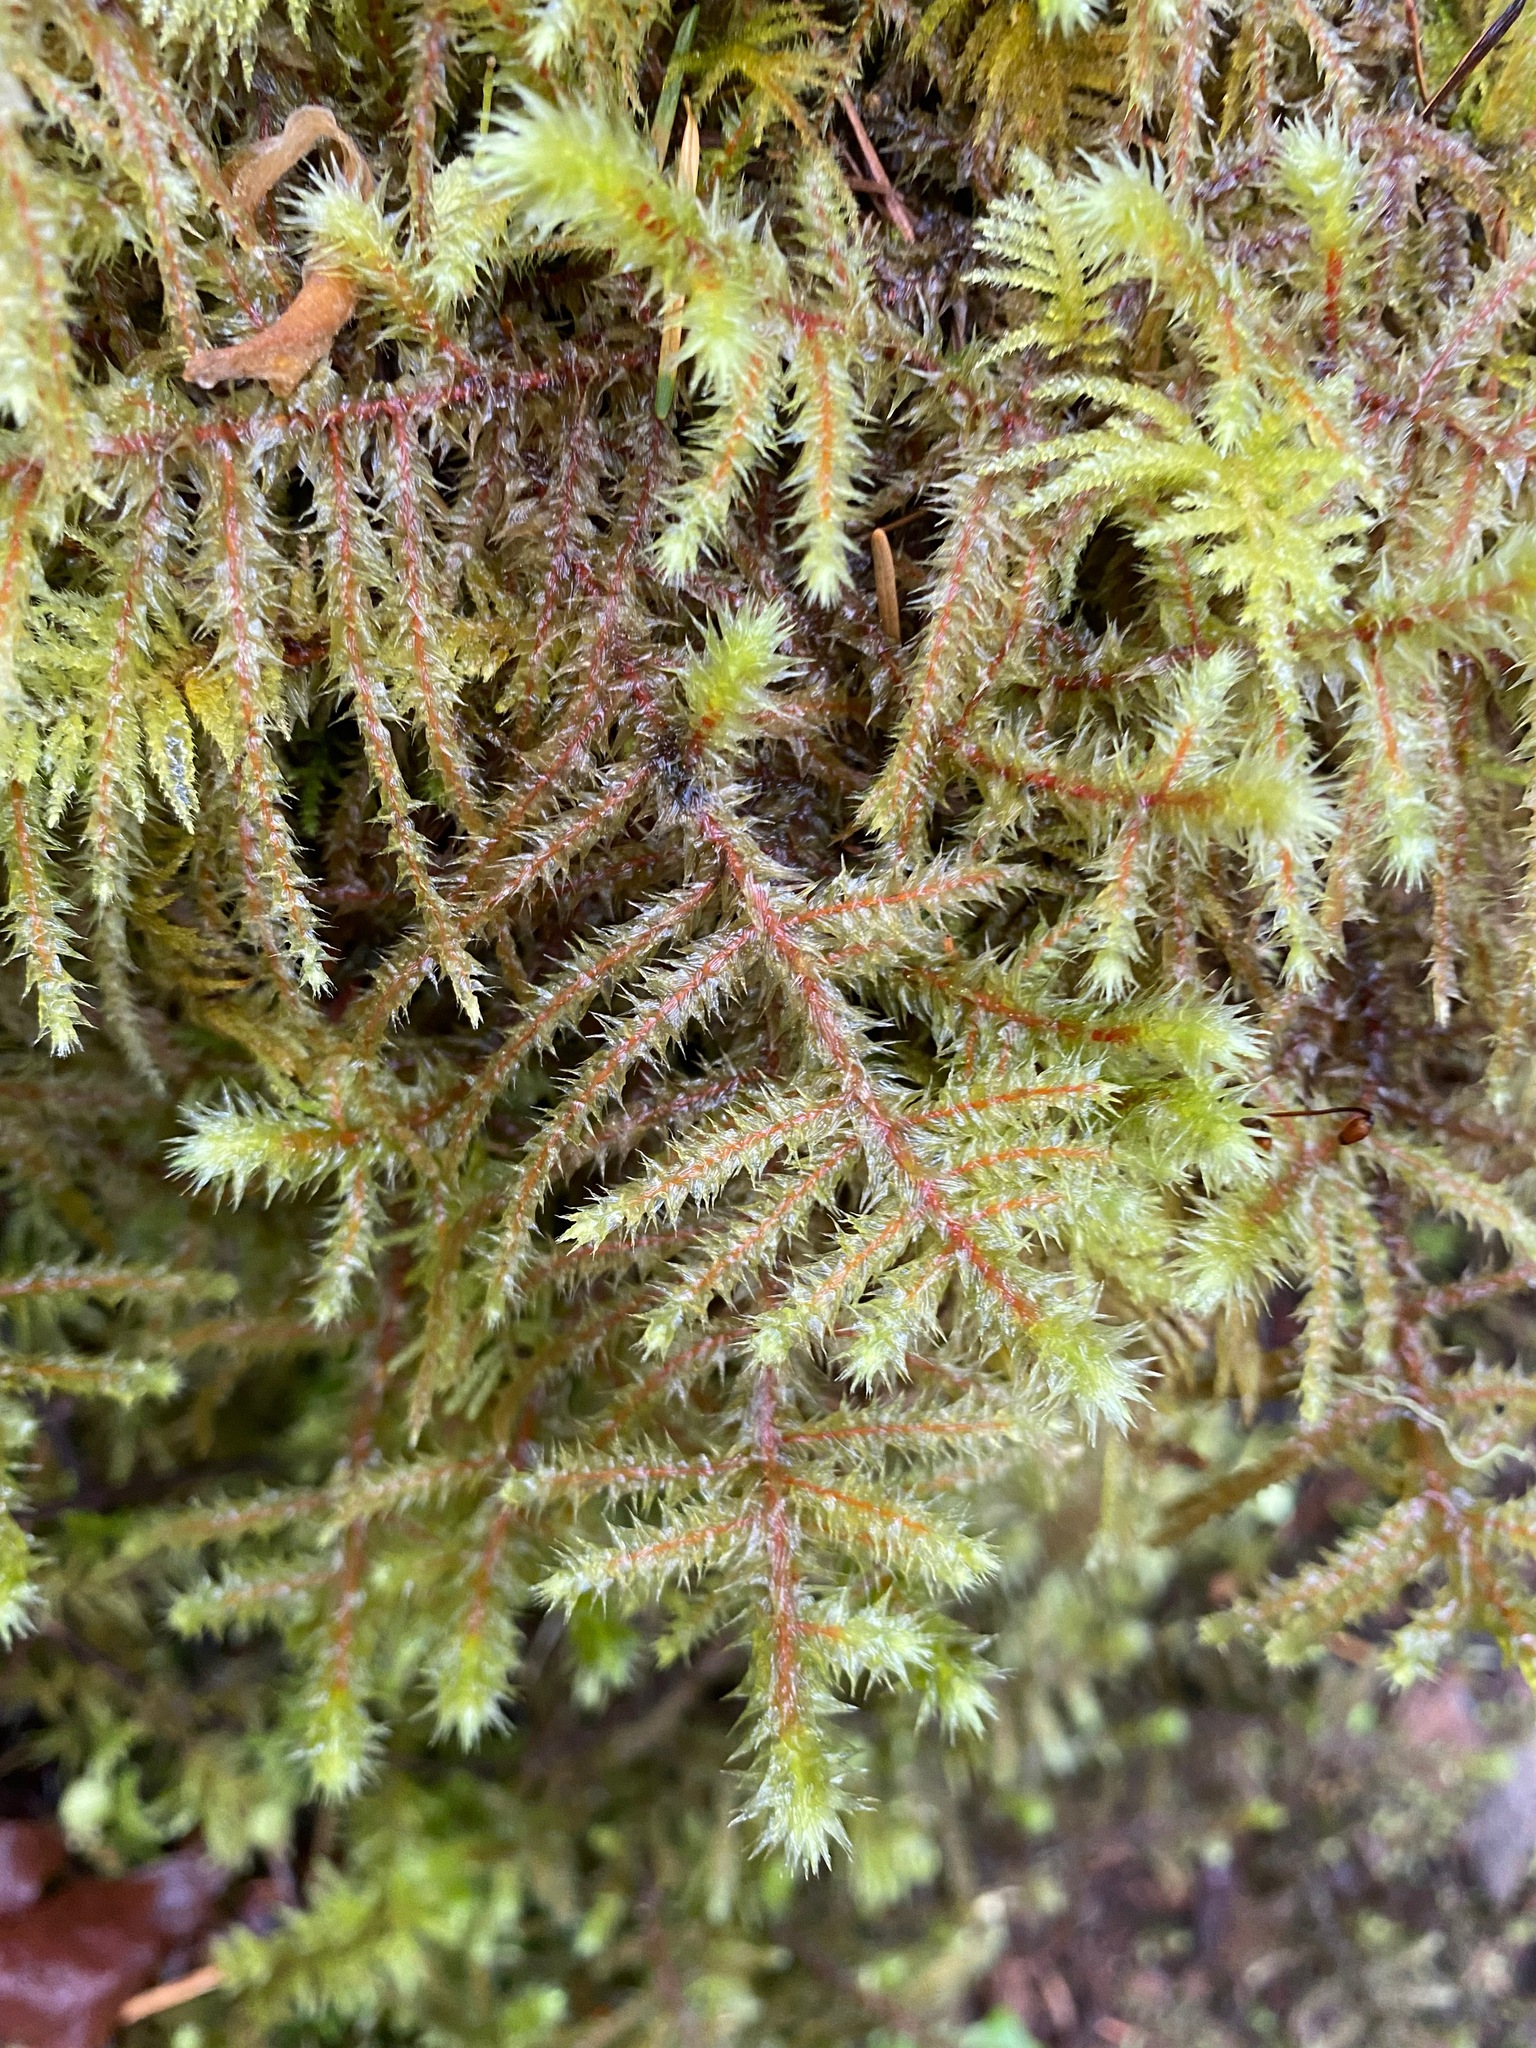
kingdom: Plantae
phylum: Bryophyta
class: Bryopsida
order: Hypnales
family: Hylocomiaceae
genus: Rhytidiadelphus
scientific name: Rhytidiadelphus loreus
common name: Lanky moss
